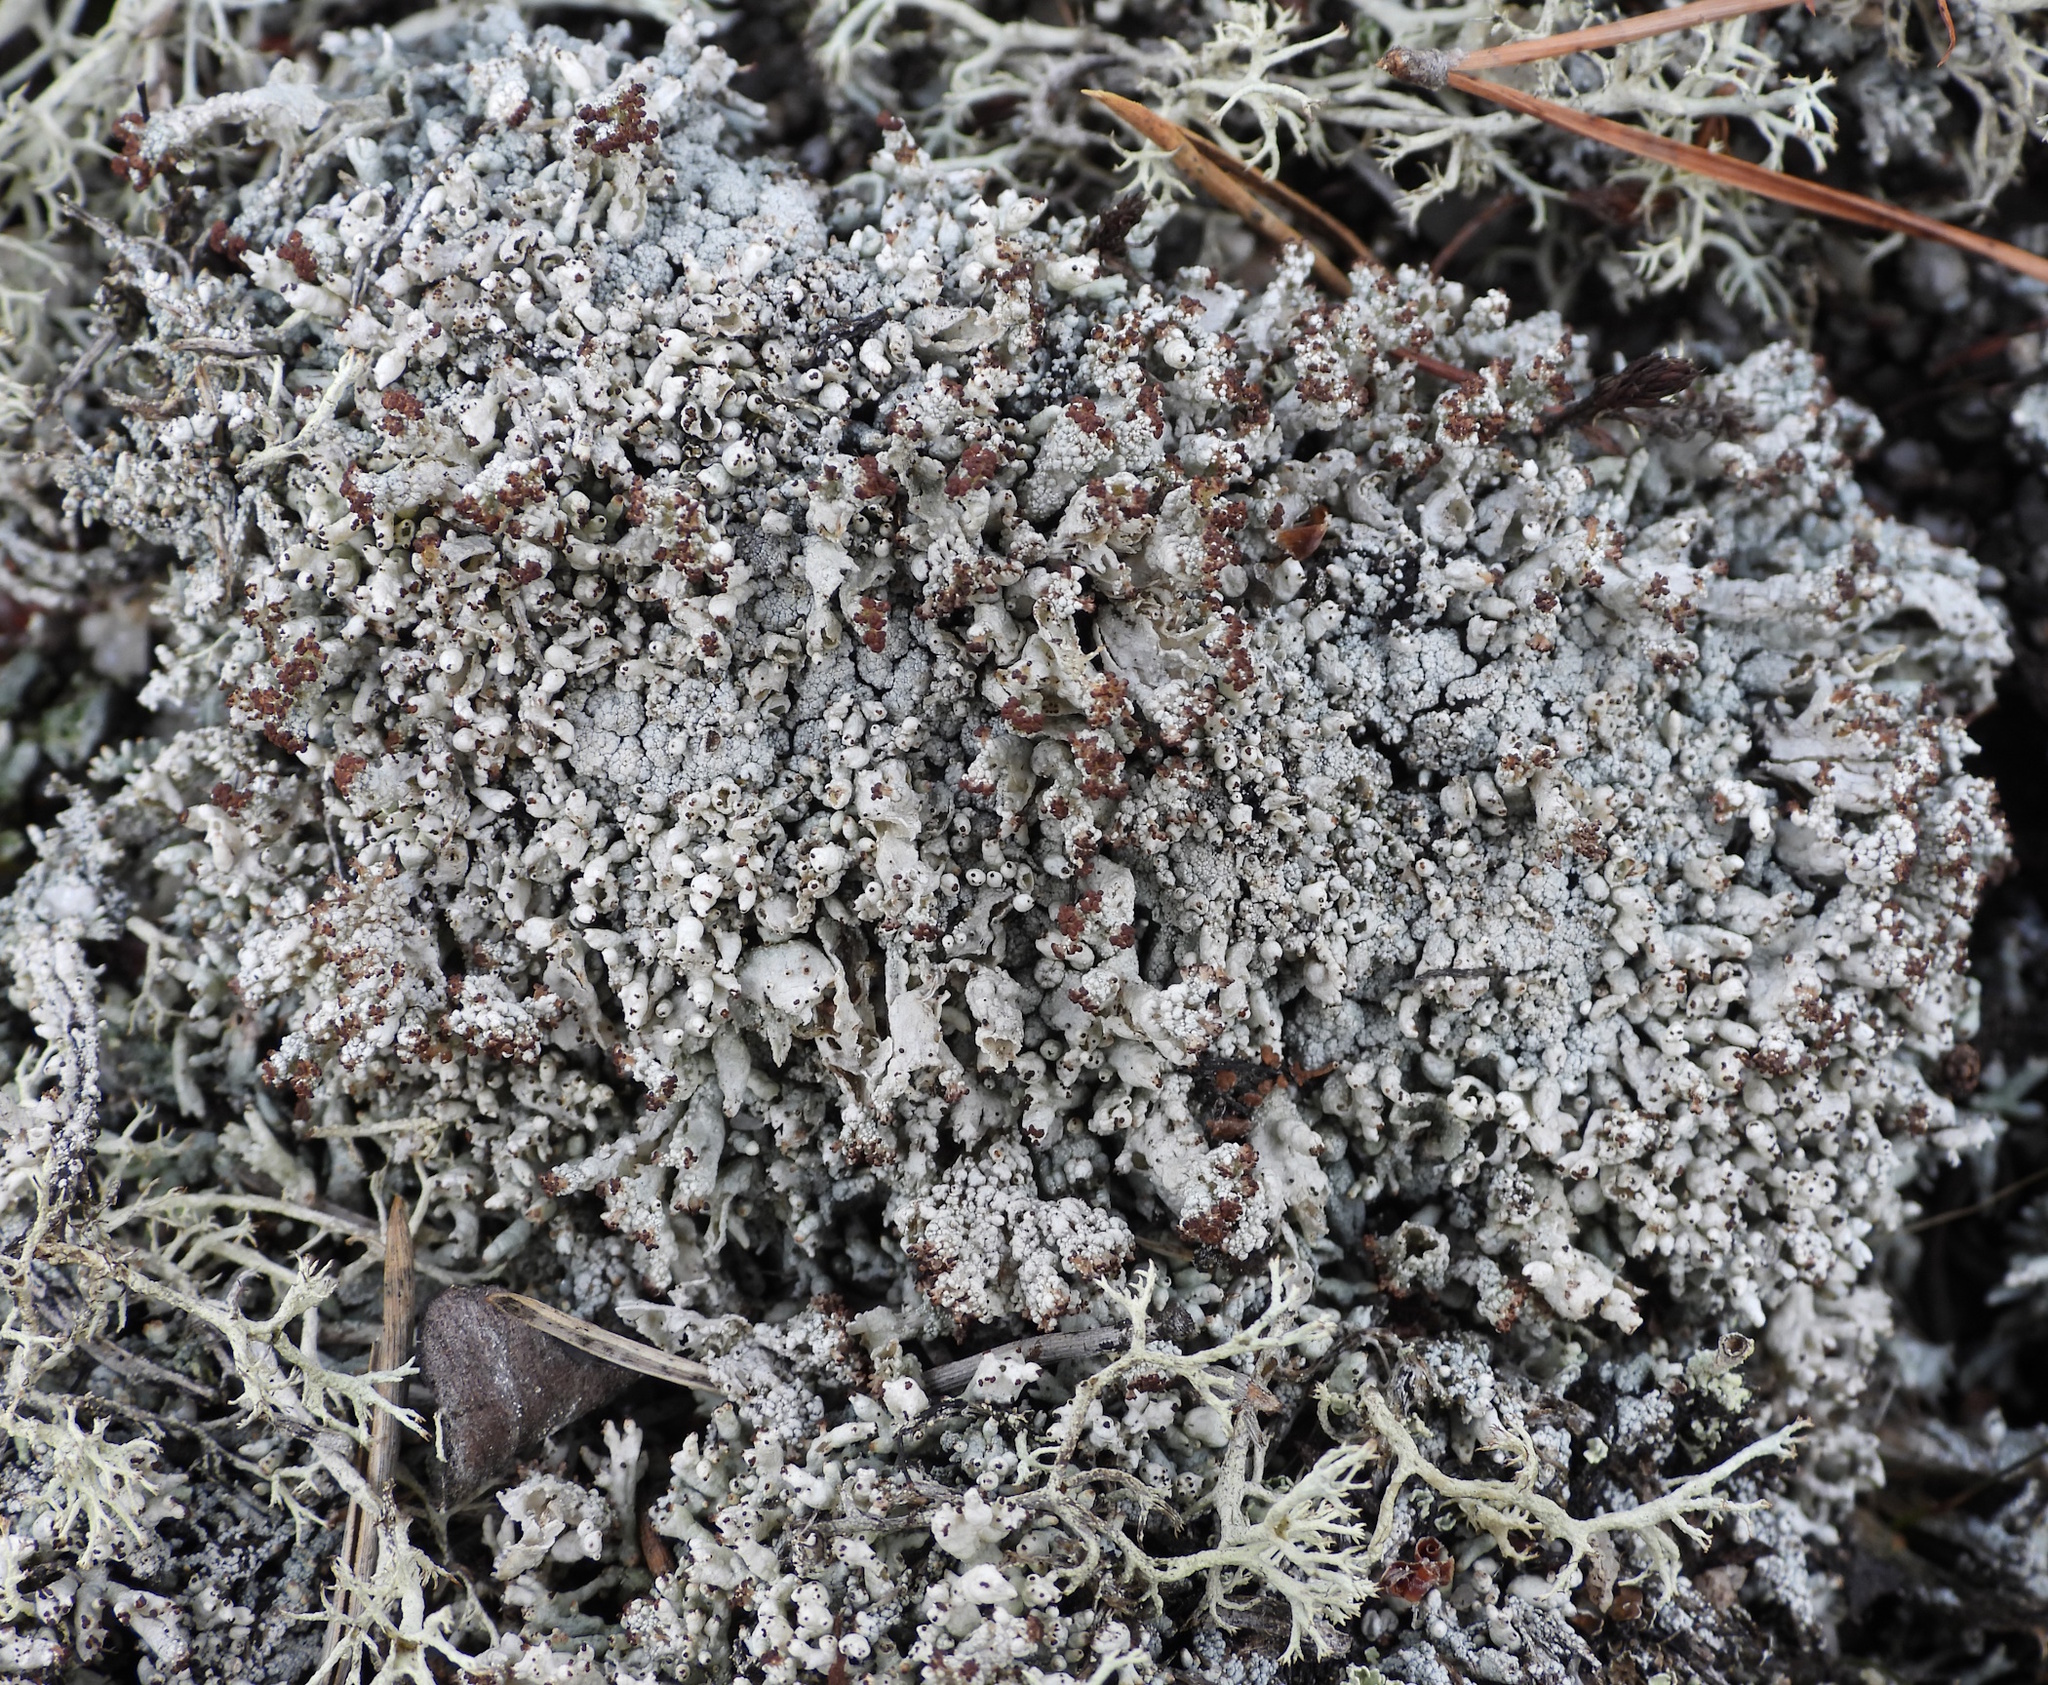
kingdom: Fungi
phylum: Ascomycota
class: Lecanoromycetes
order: Lecanorales
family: Cladoniaceae
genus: Pycnothelia
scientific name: Pycnothelia papillaria
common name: Nipple lichen
